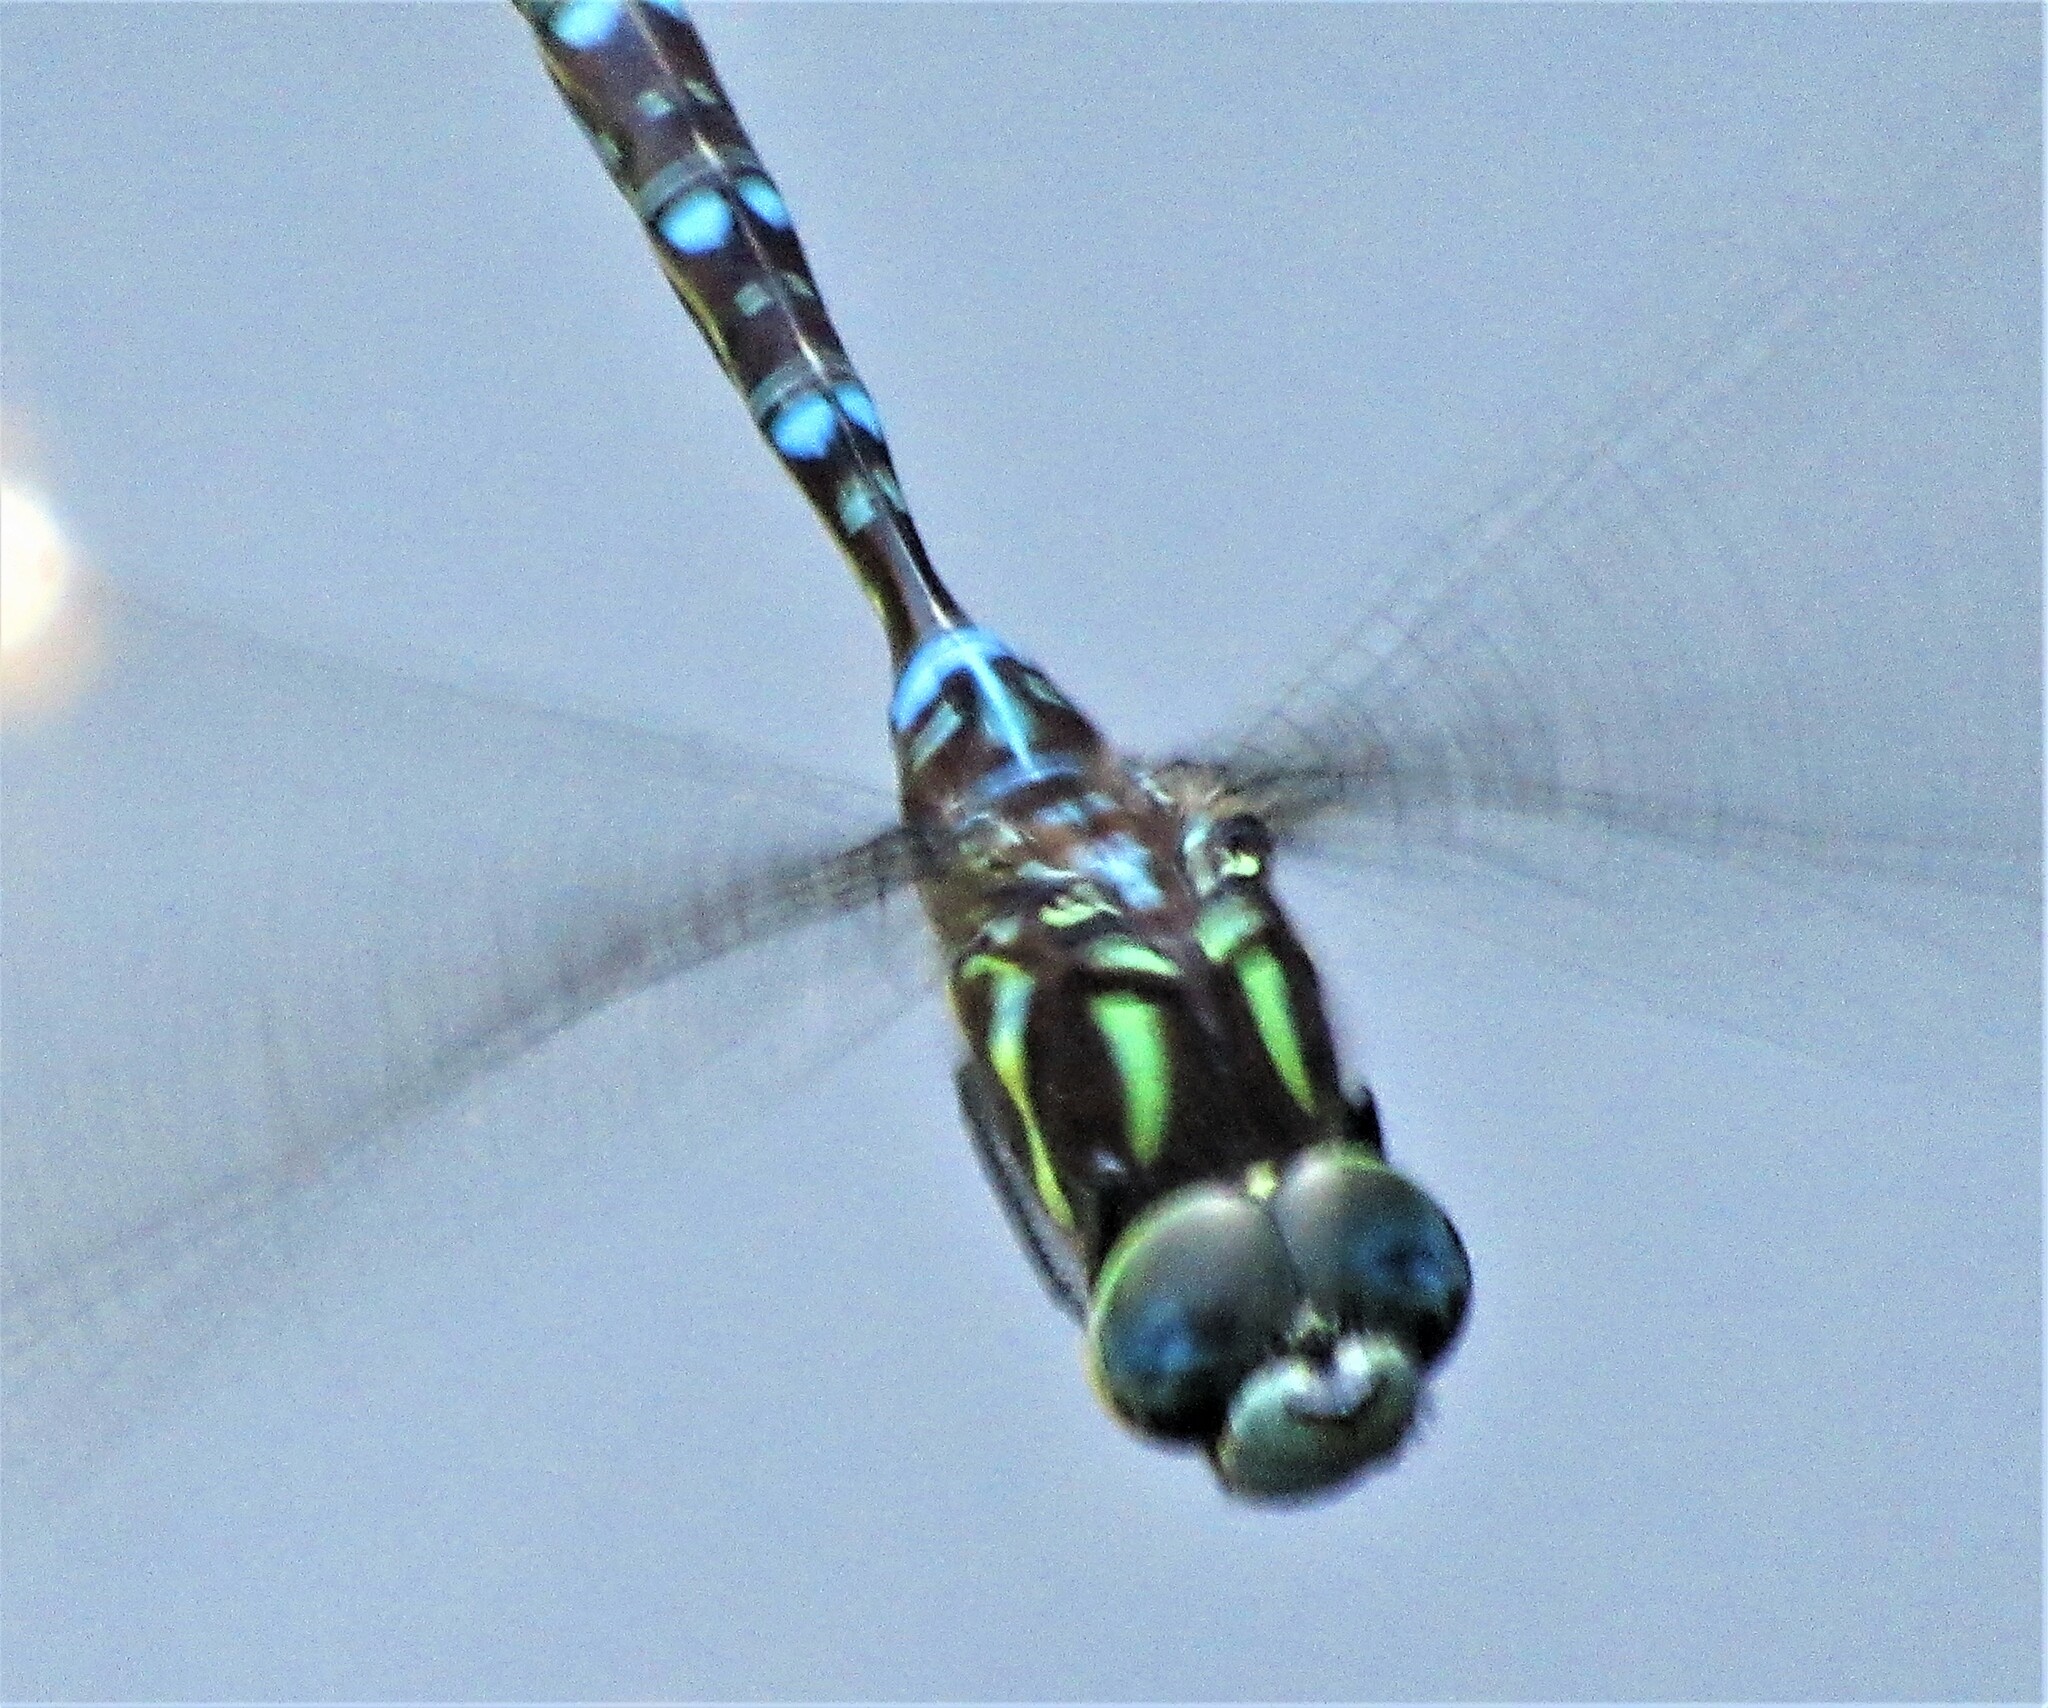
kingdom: Animalia
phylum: Arthropoda
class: Insecta
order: Odonata
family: Aeshnidae
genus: Aeshna
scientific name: Aeshna umbrosa
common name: Shadow darner
